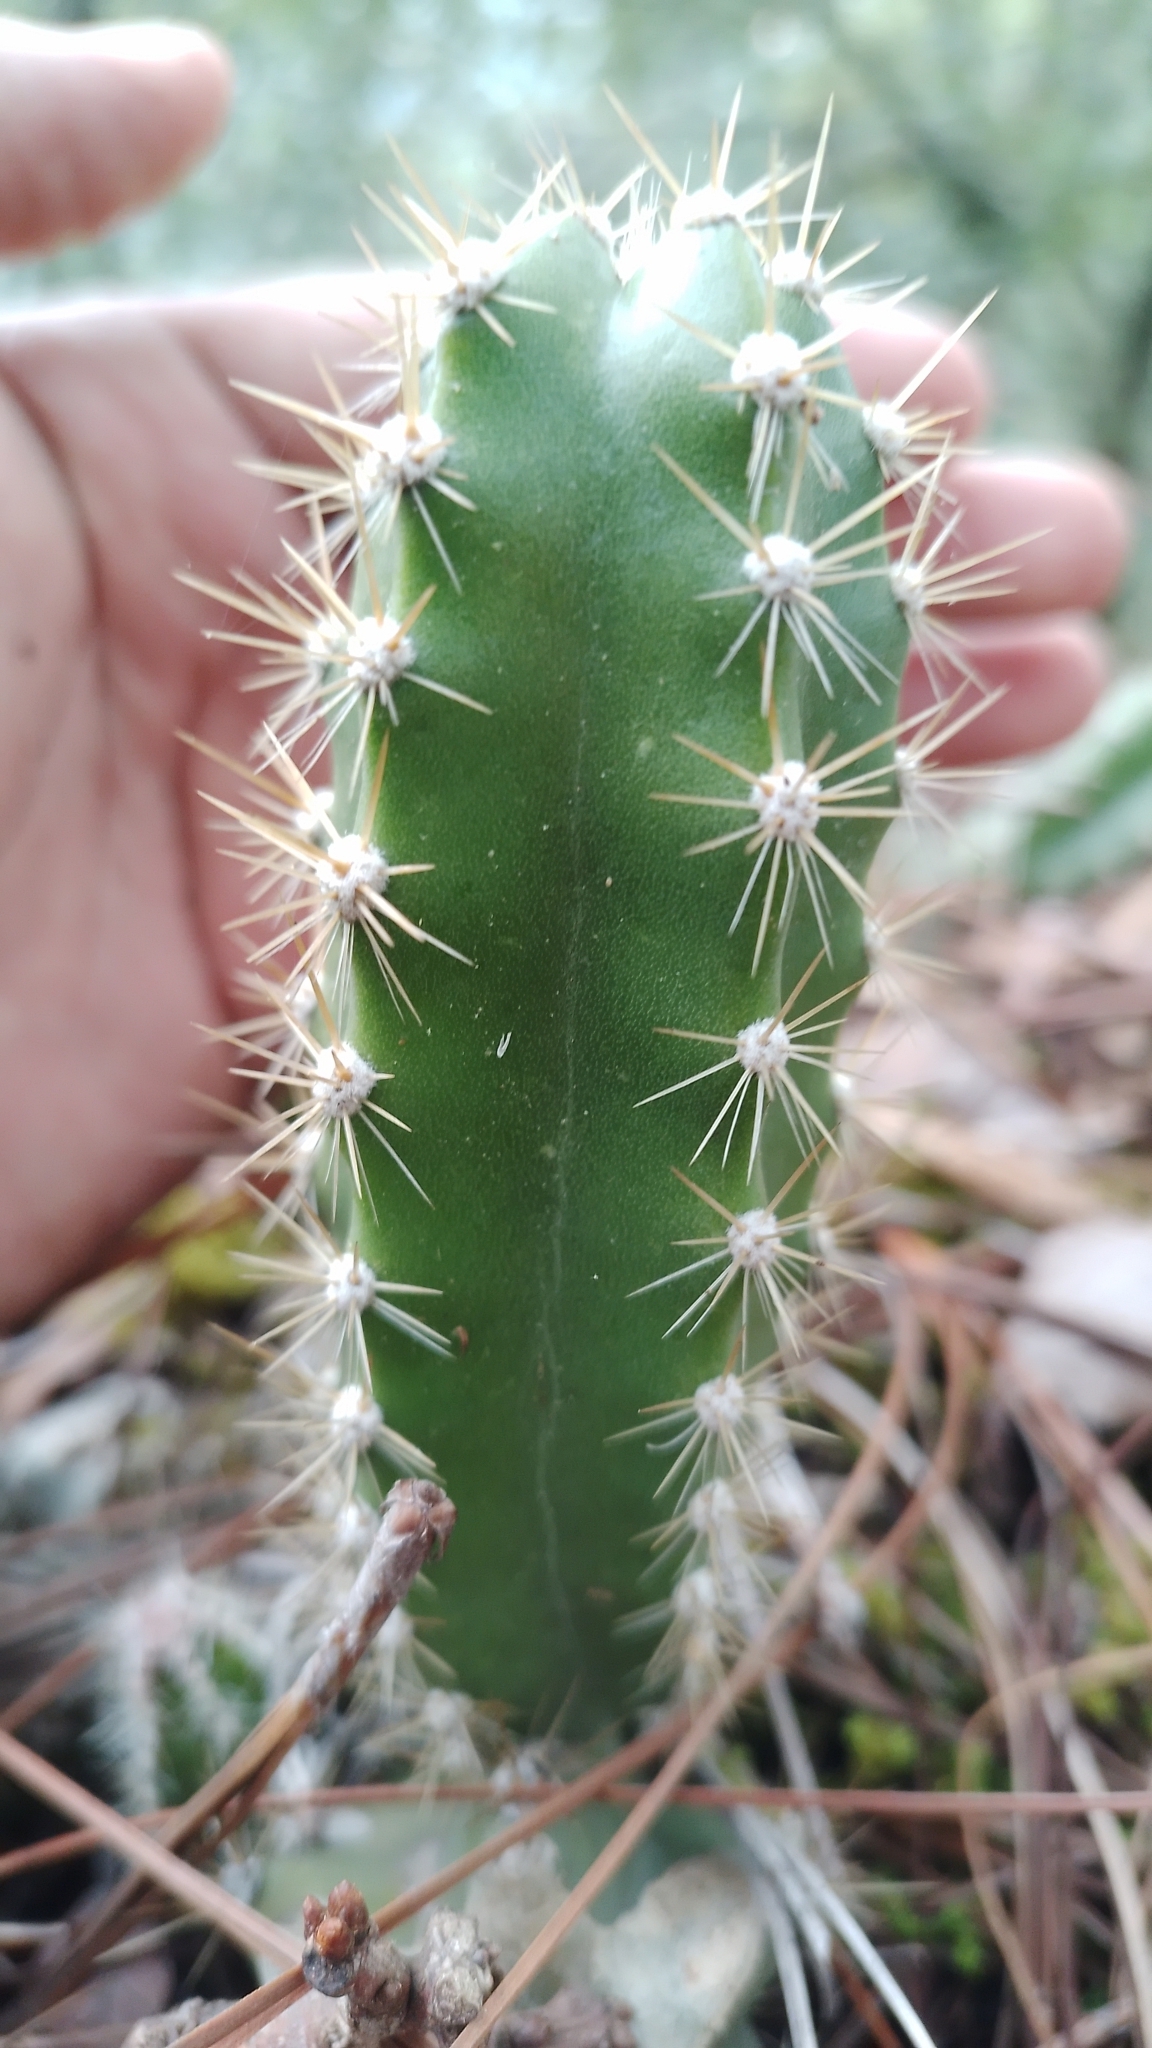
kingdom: Plantae
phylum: Tracheophyta
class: Magnoliopsida
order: Caryophyllales
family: Cactaceae
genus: Disocactus
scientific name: Disocactus speciosus
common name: Sun cereus
